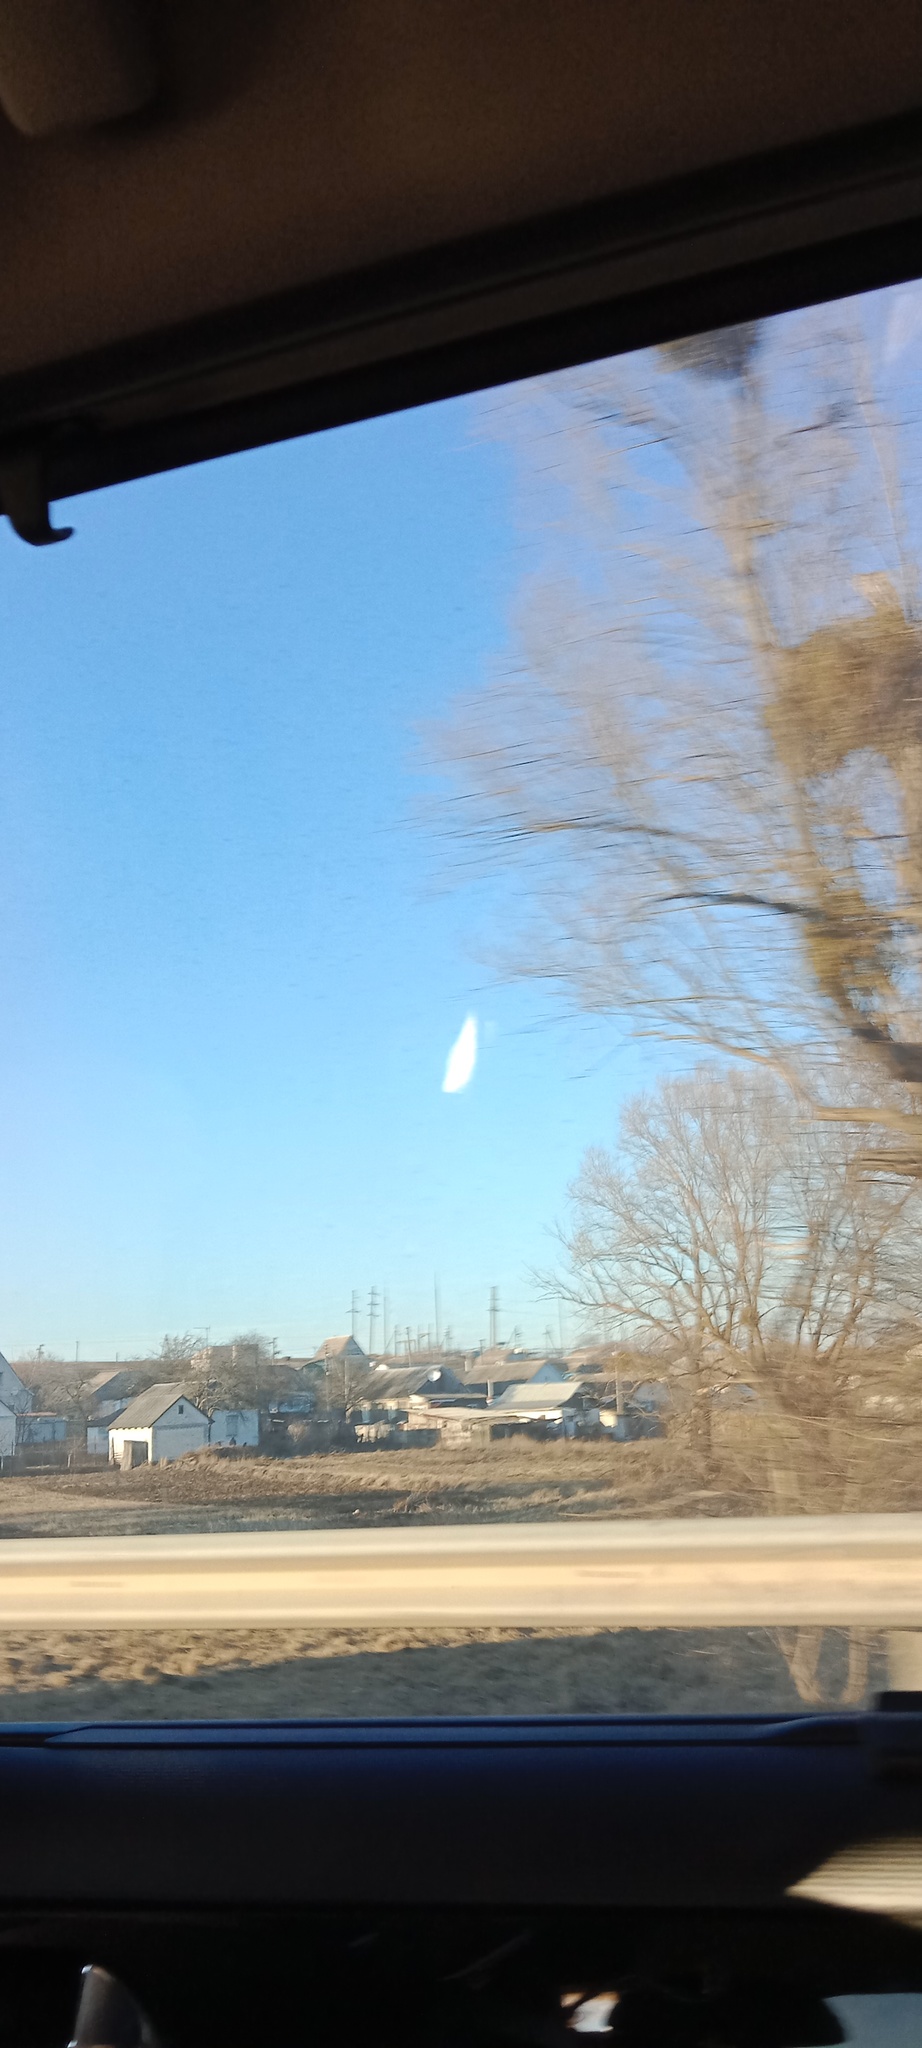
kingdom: Plantae
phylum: Tracheophyta
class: Magnoliopsida
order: Santalales
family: Viscaceae
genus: Viscum
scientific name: Viscum album
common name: Mistletoe
